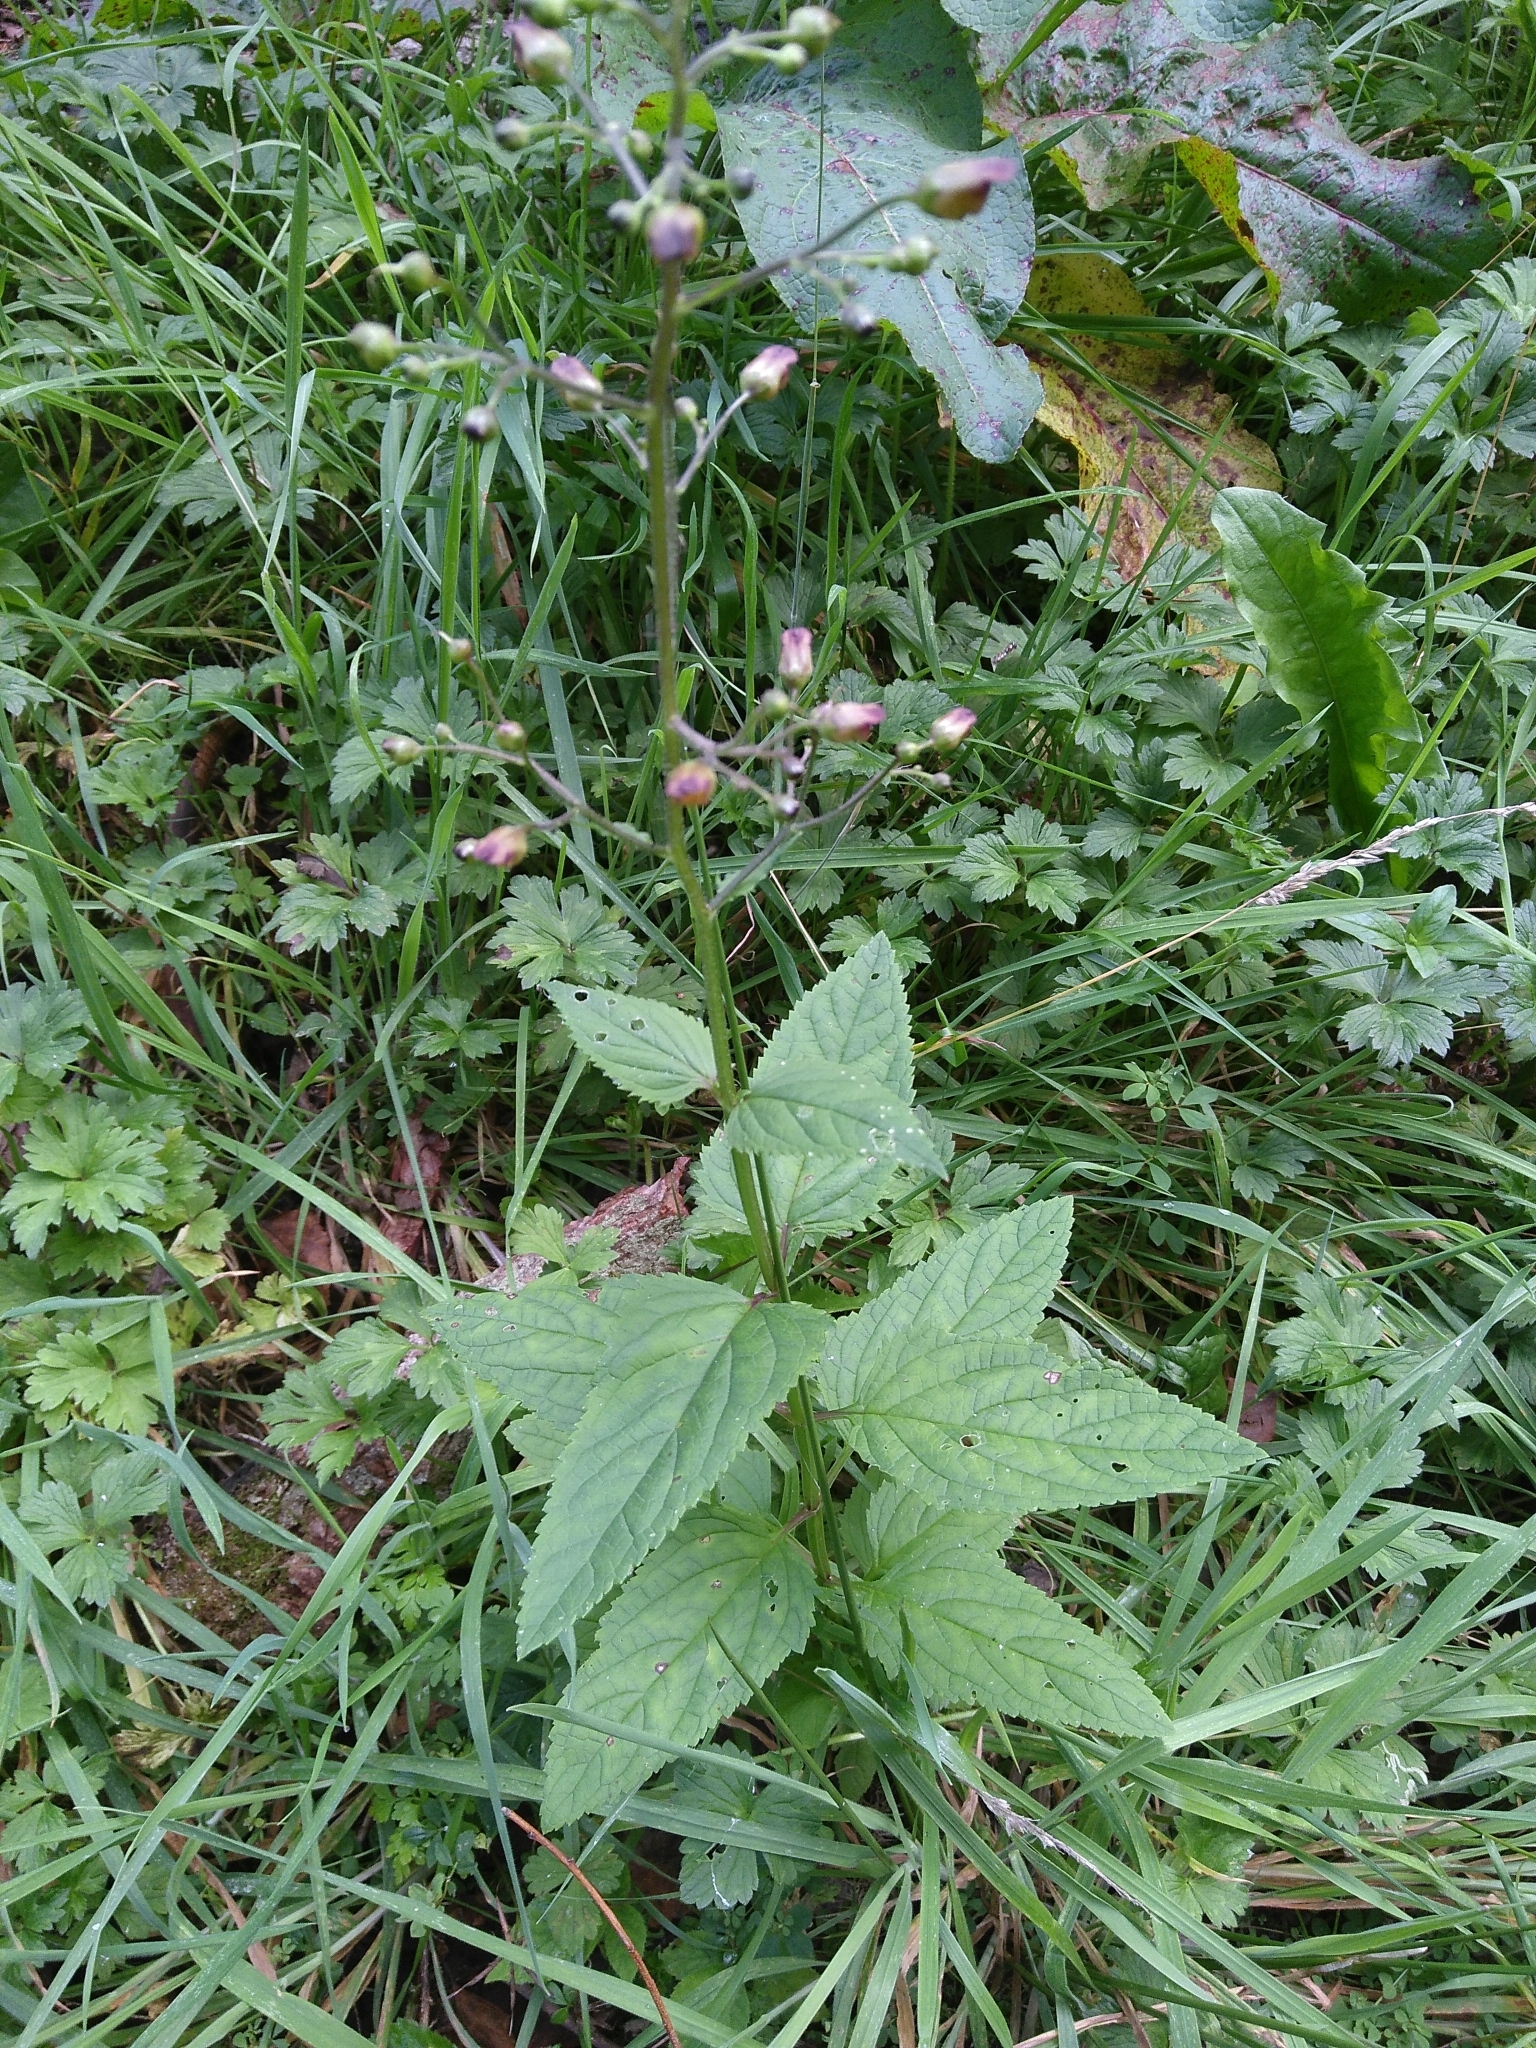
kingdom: Plantae
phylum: Tracheophyta
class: Magnoliopsida
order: Lamiales
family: Scrophulariaceae
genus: Scrophularia
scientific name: Scrophularia nodosa
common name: Common figwort
